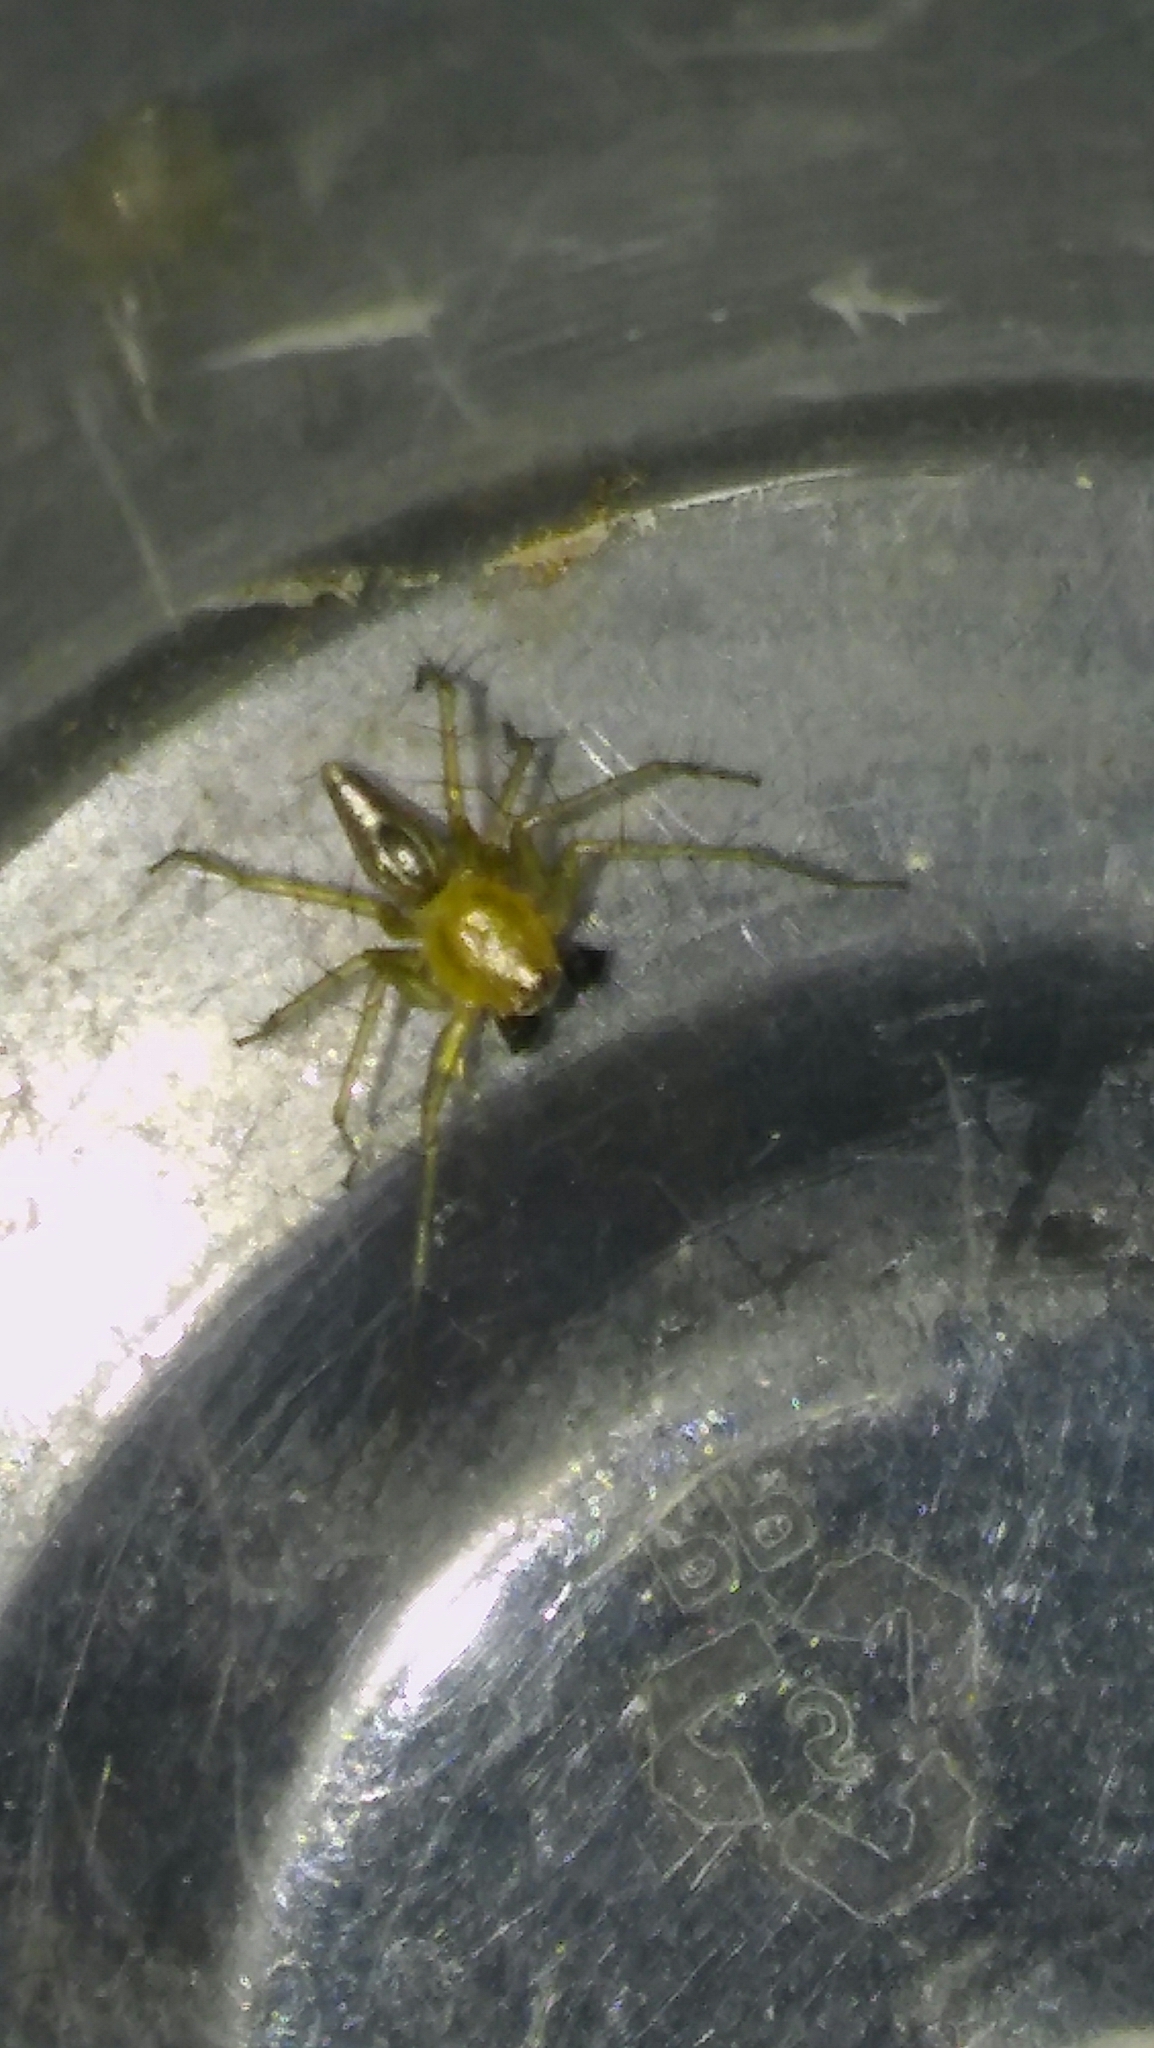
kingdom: Animalia
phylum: Arthropoda
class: Arachnida
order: Araneae
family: Oxyopidae
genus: Oxyopes
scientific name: Oxyopes salticus
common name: Lynx spiders
